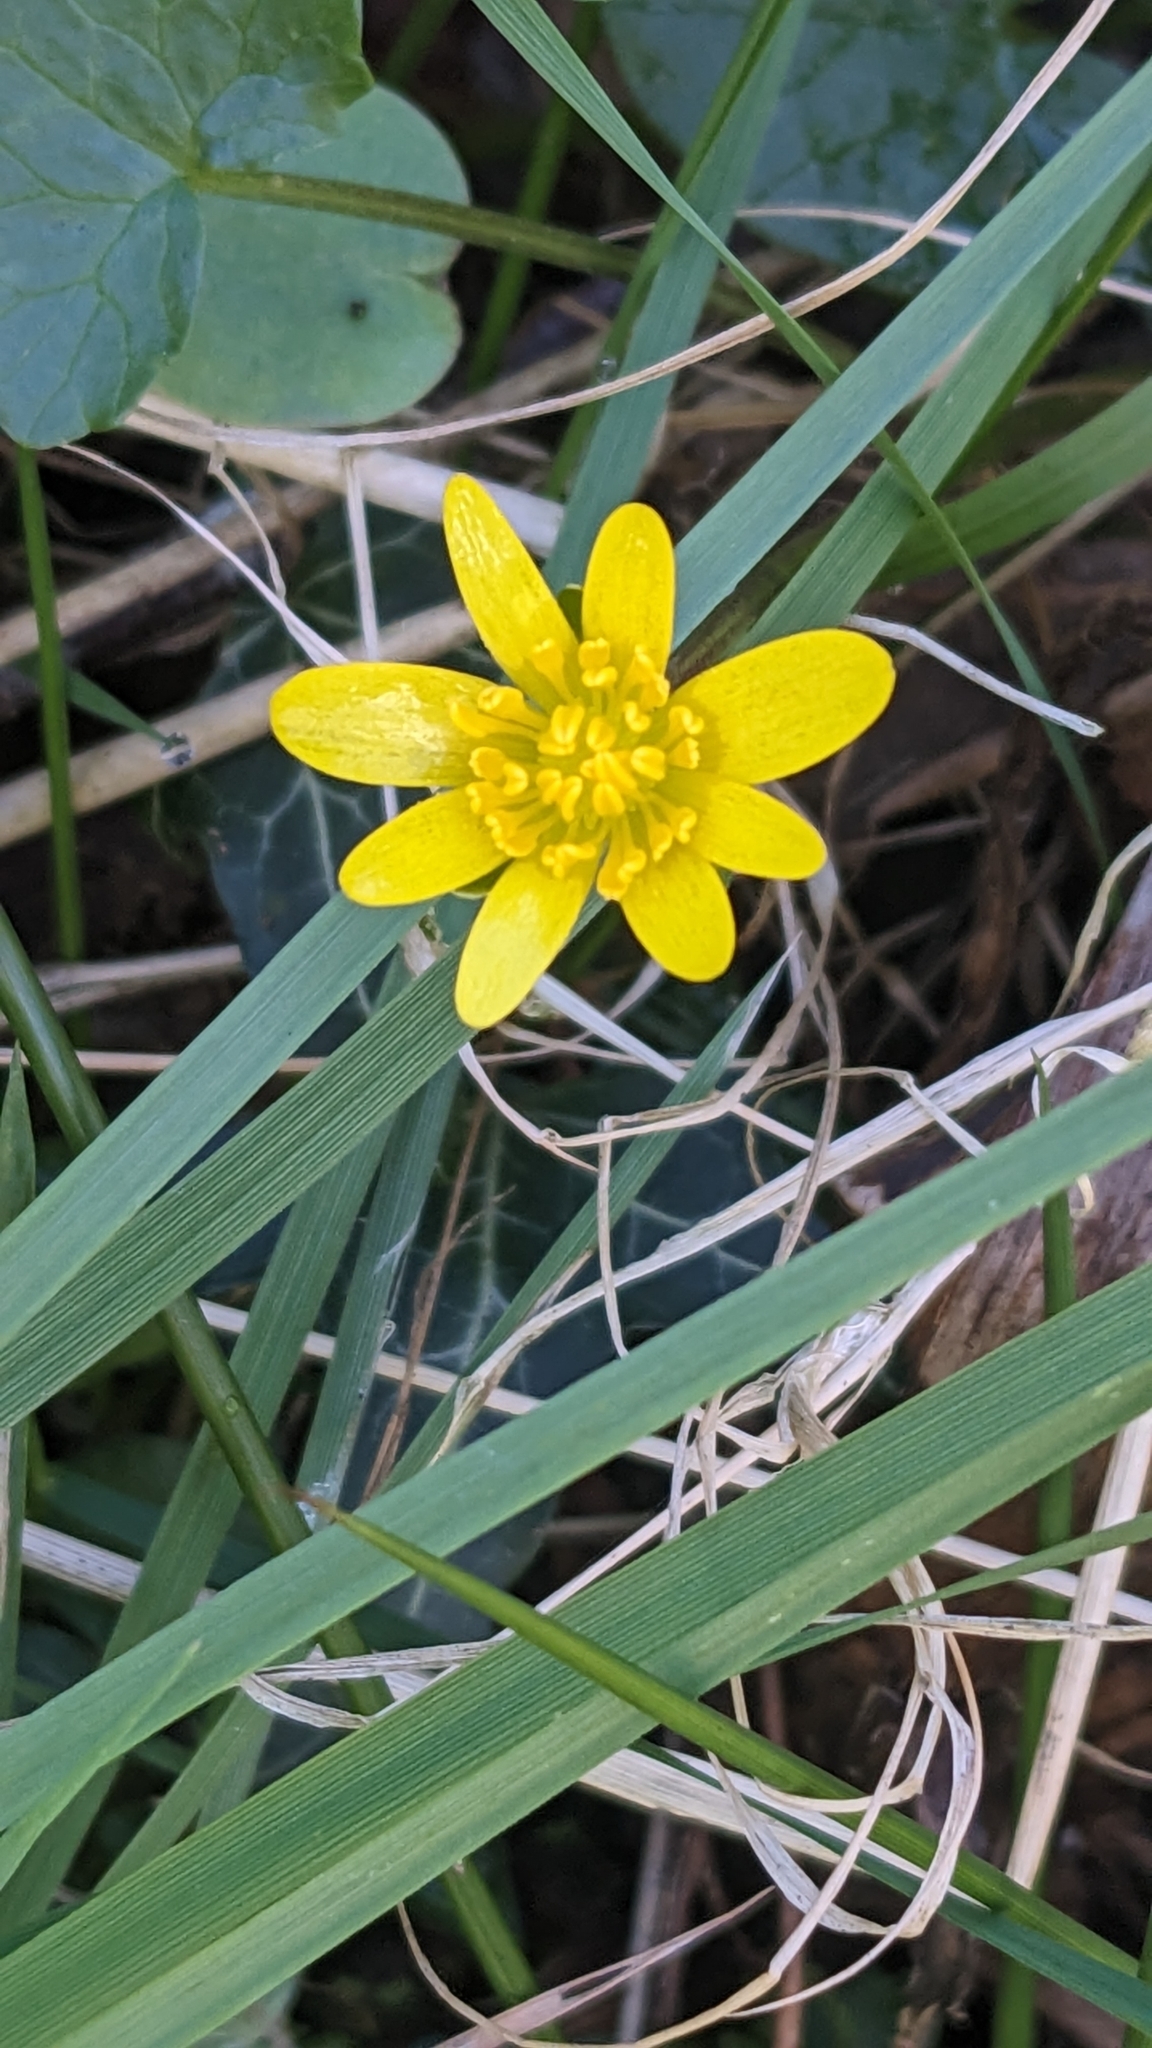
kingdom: Plantae
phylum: Tracheophyta
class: Magnoliopsida
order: Ranunculales
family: Ranunculaceae
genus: Ficaria
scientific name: Ficaria verna
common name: Lesser celandine
